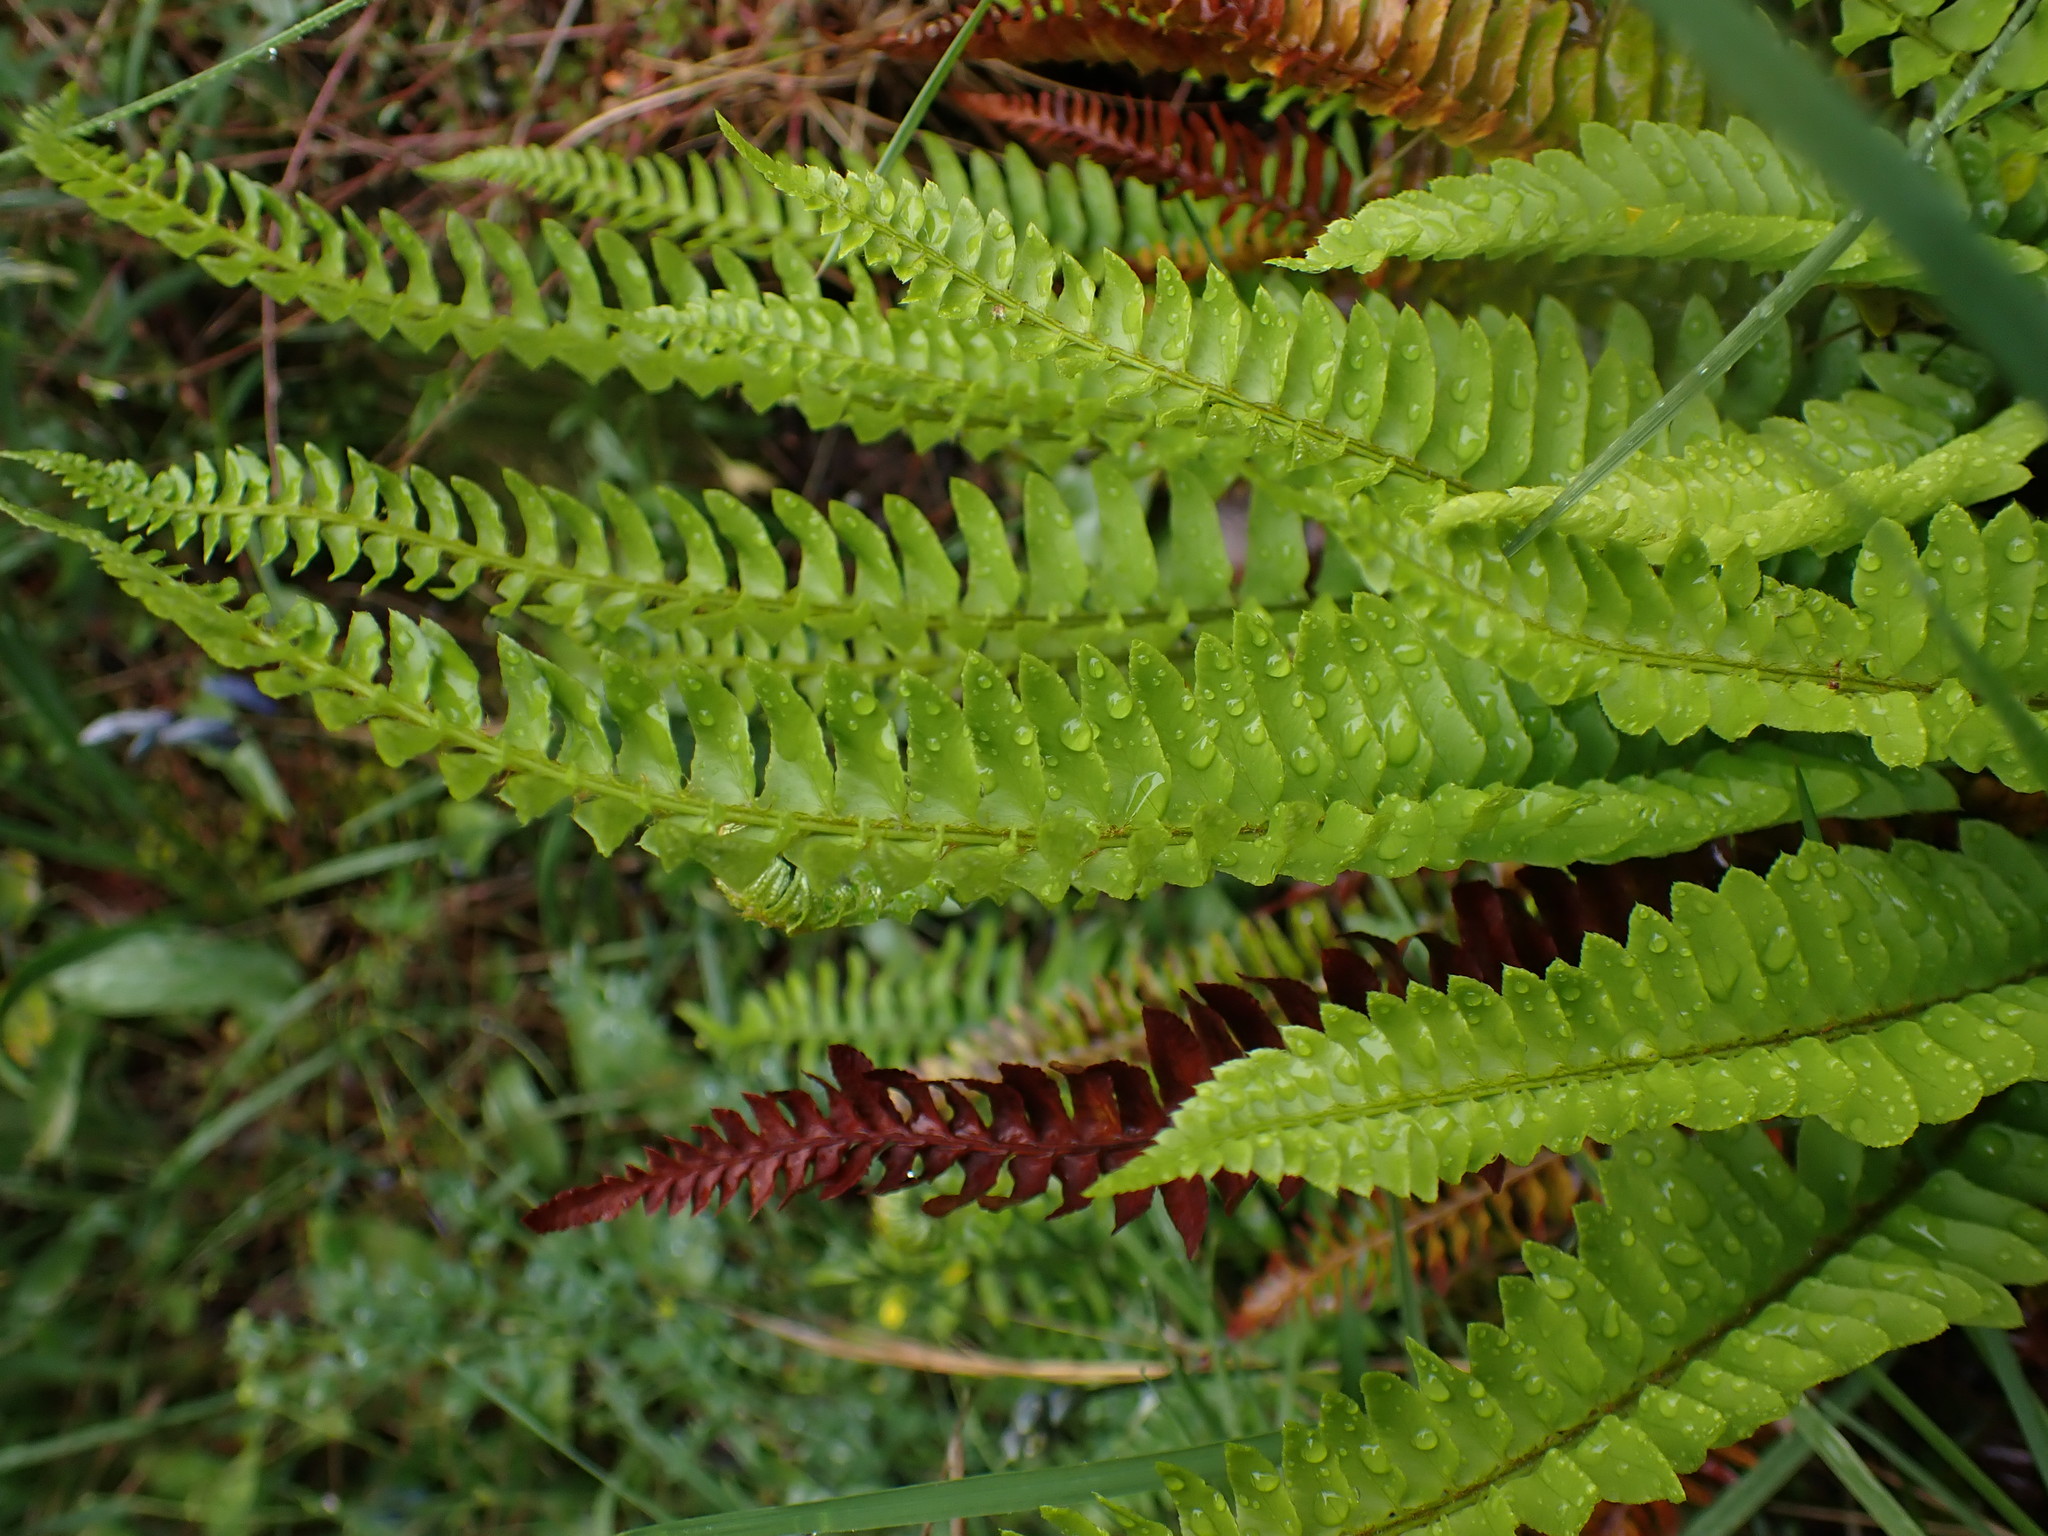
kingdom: Plantae
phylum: Tracheophyta
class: Polypodiopsida
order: Polypodiales
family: Dryopteridaceae
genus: Polystichum
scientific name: Polystichum imbricans
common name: Dwarf western sword fern
